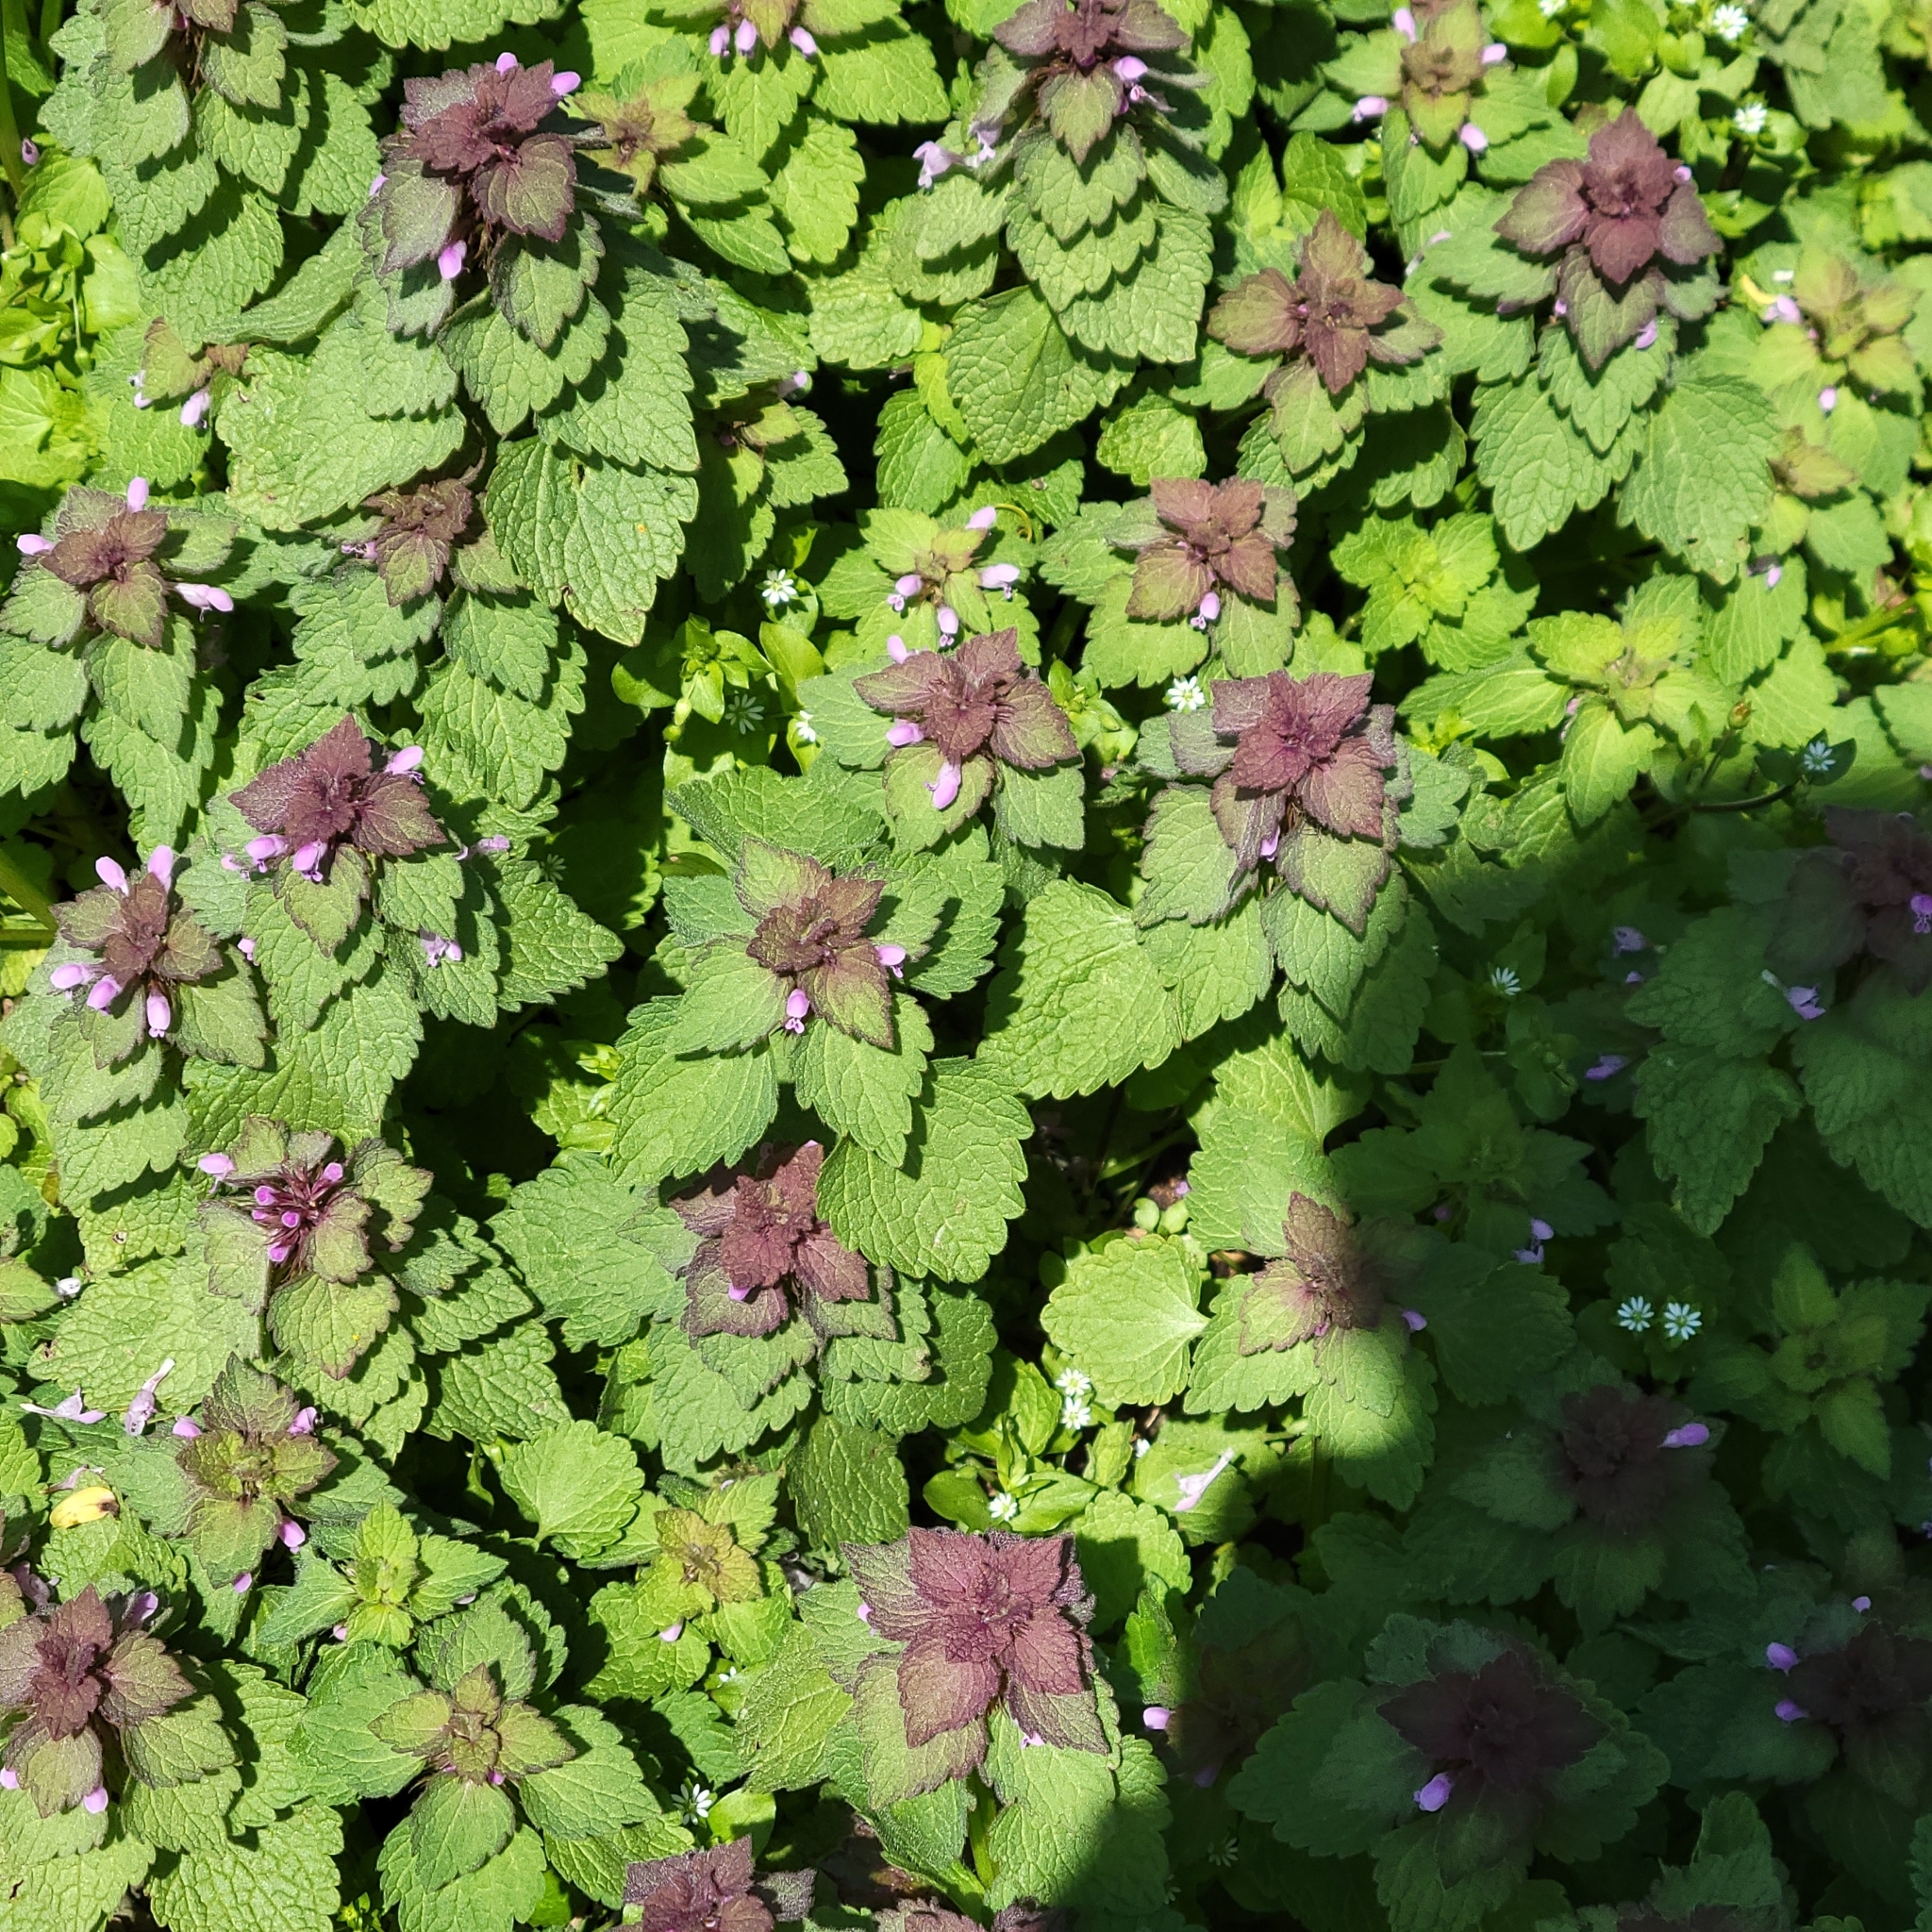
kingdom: Plantae
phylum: Tracheophyta
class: Magnoliopsida
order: Lamiales
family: Lamiaceae
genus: Lamium
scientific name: Lamium purpureum
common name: Red dead-nettle
